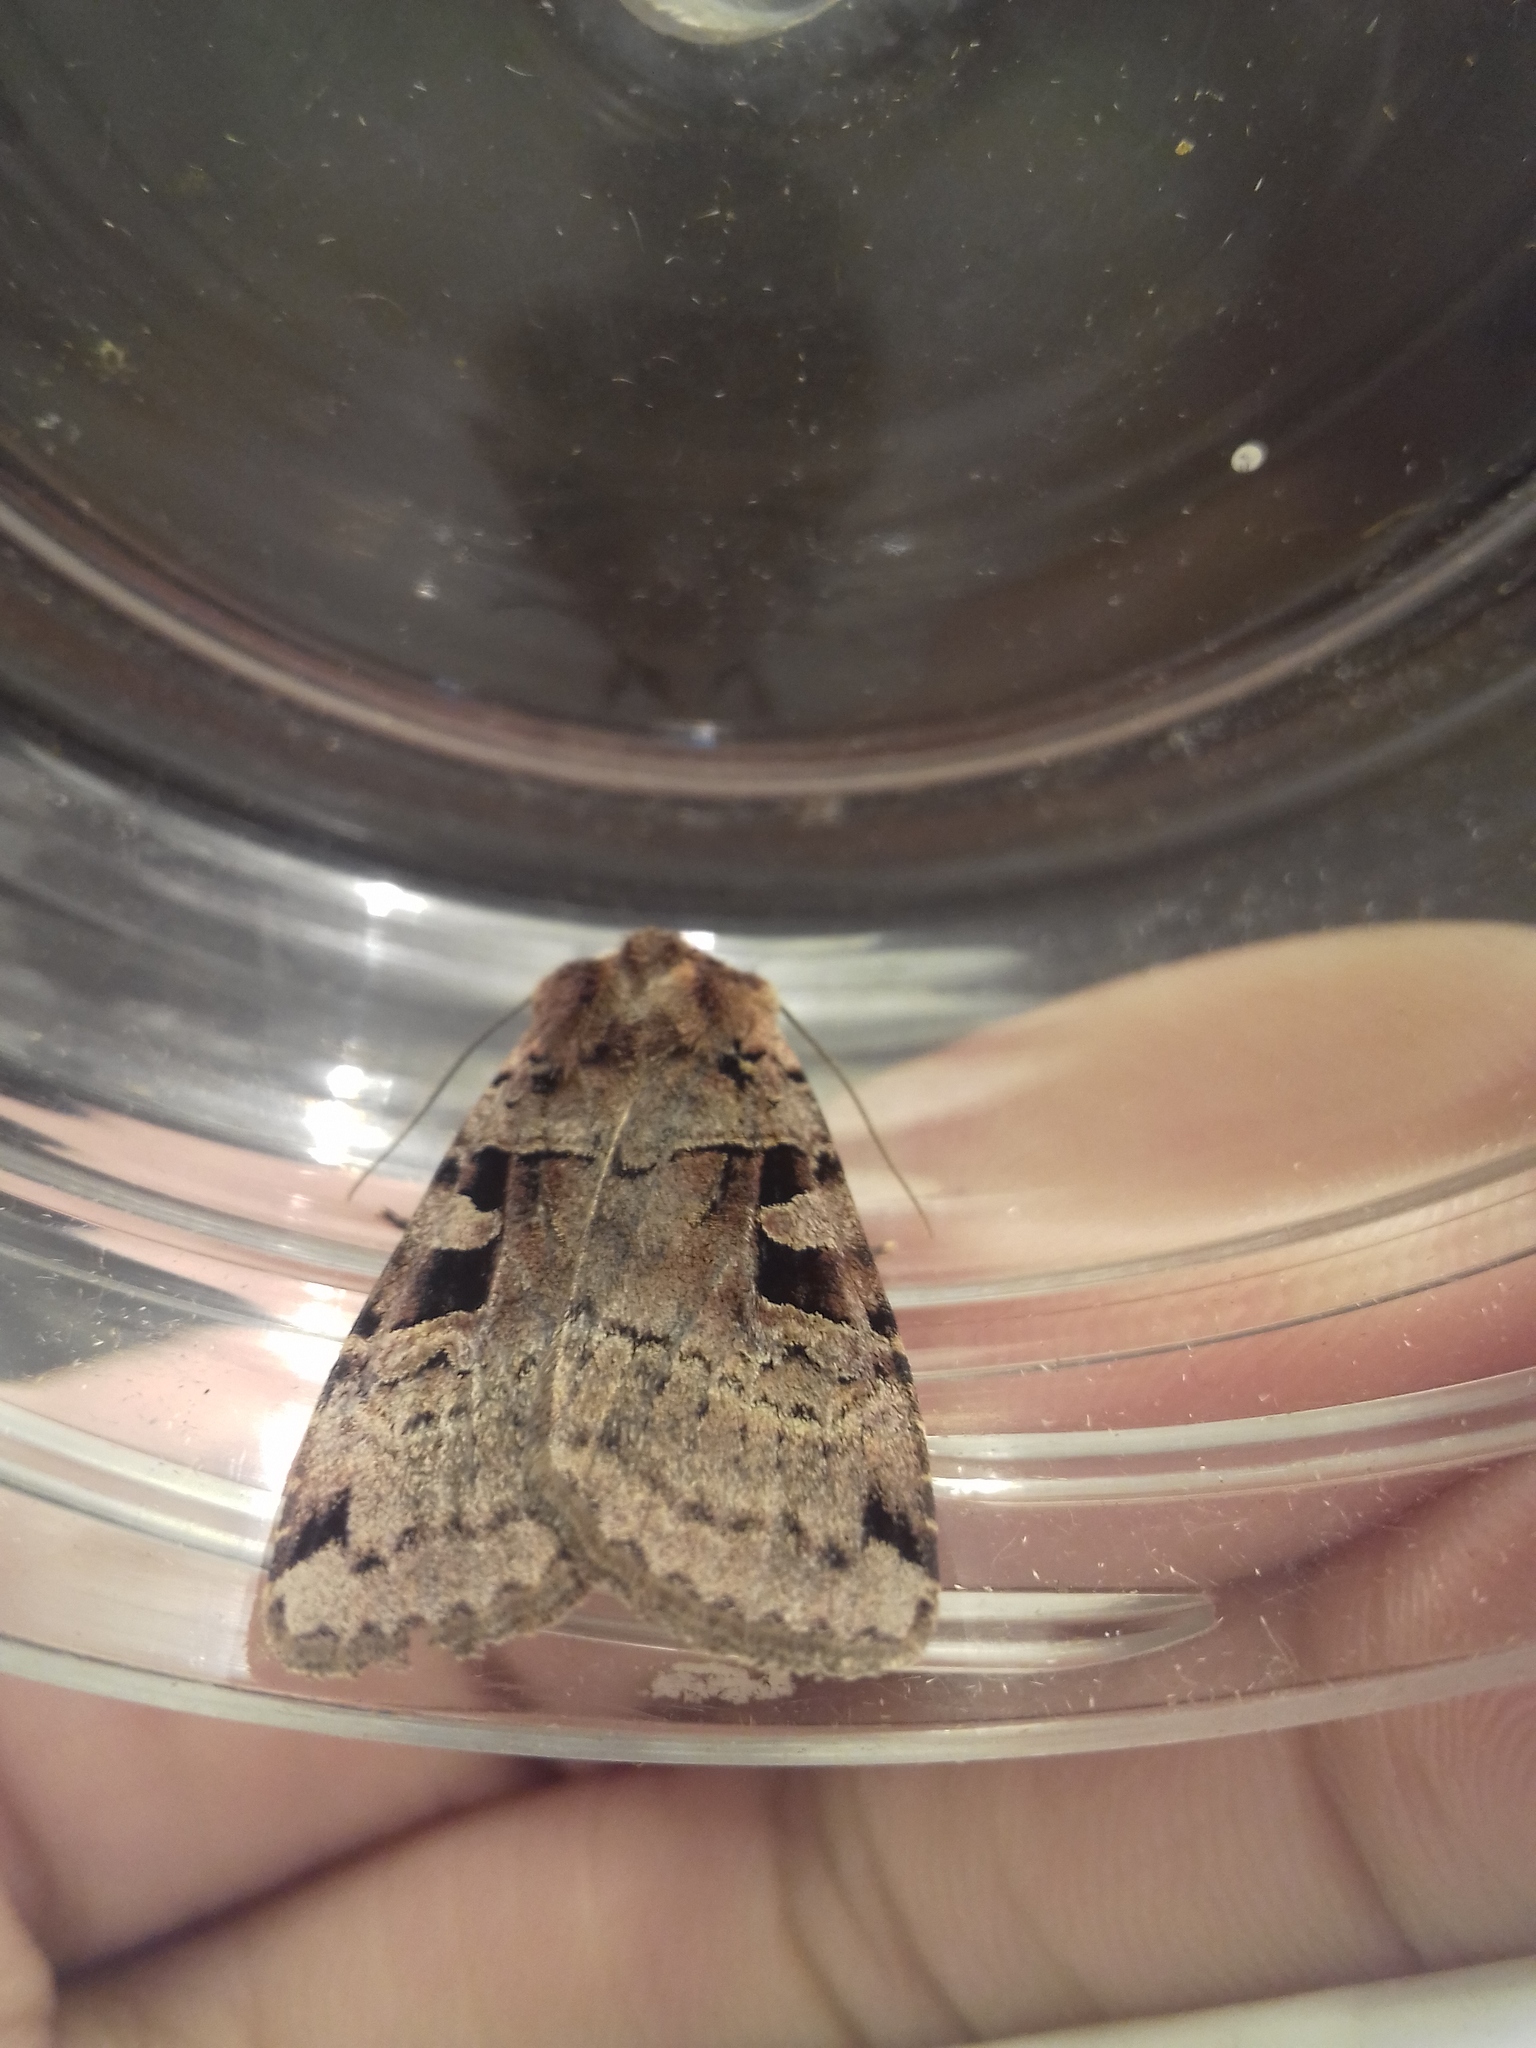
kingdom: Animalia
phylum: Arthropoda
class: Insecta
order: Lepidoptera
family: Noctuidae
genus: Xestia
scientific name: Xestia triangulum
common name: Double square-spot
